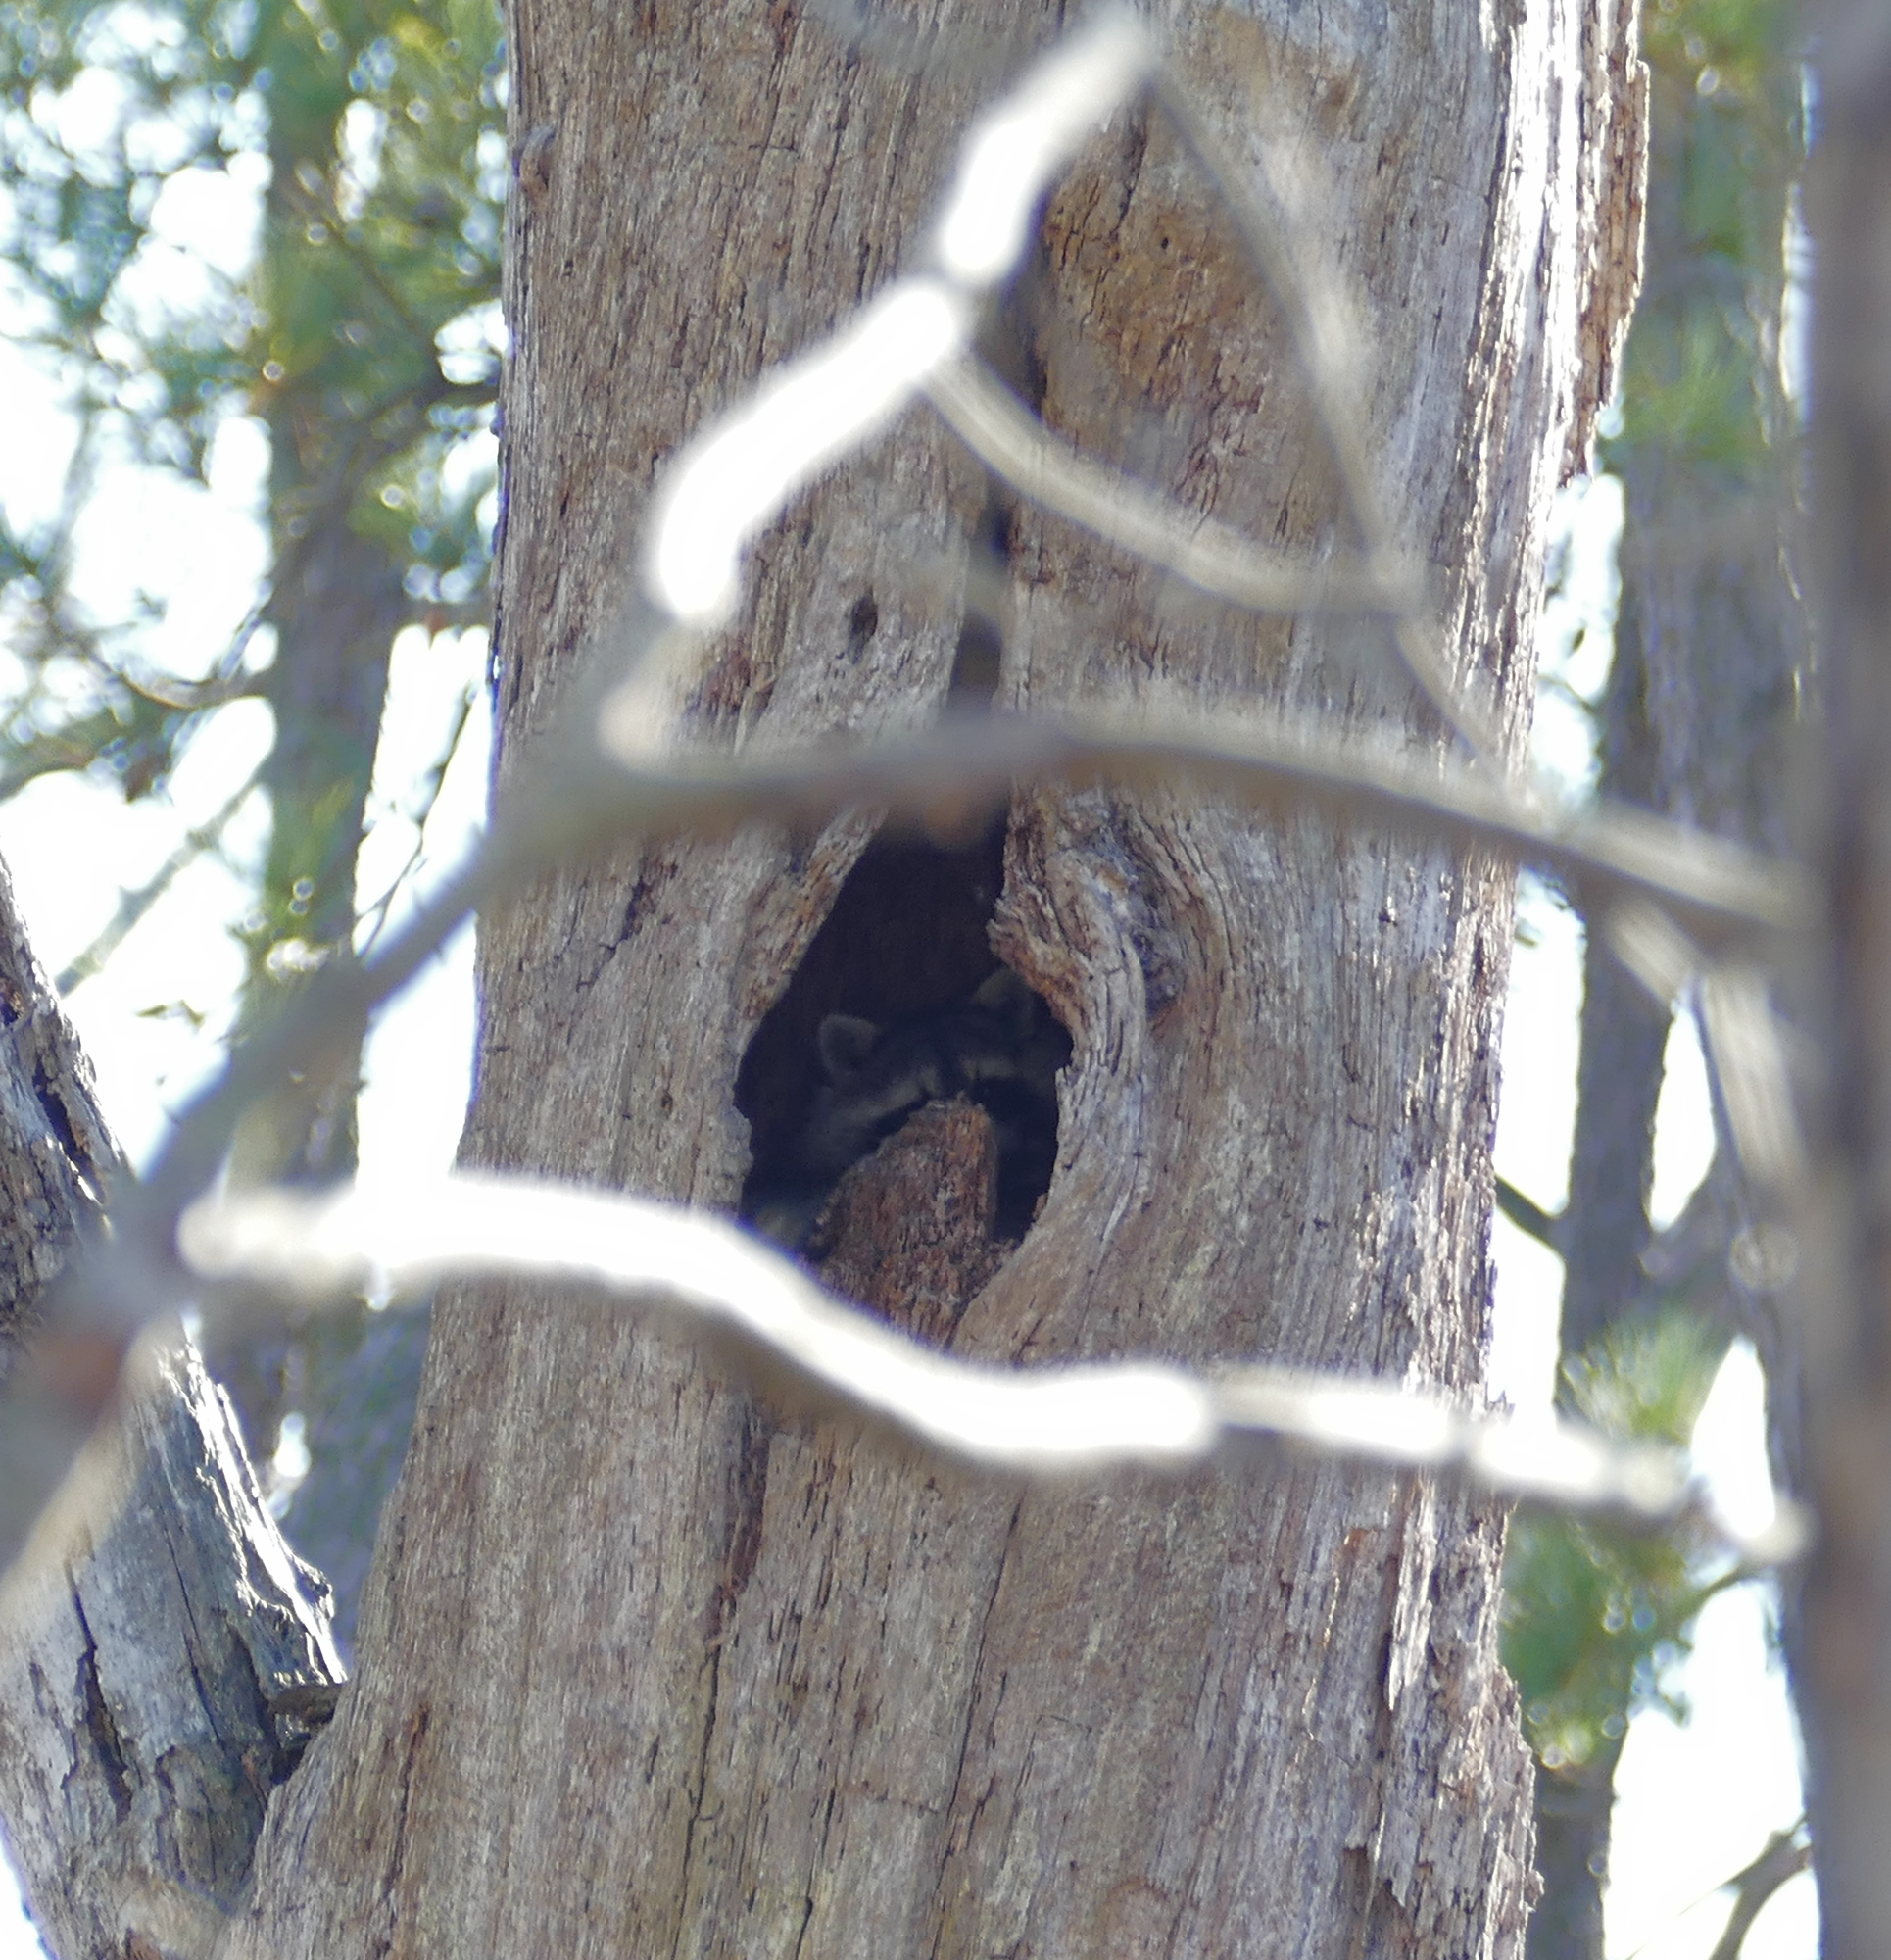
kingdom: Animalia
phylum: Chordata
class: Mammalia
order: Carnivora
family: Procyonidae
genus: Procyon
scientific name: Procyon lotor
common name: Raccoon
